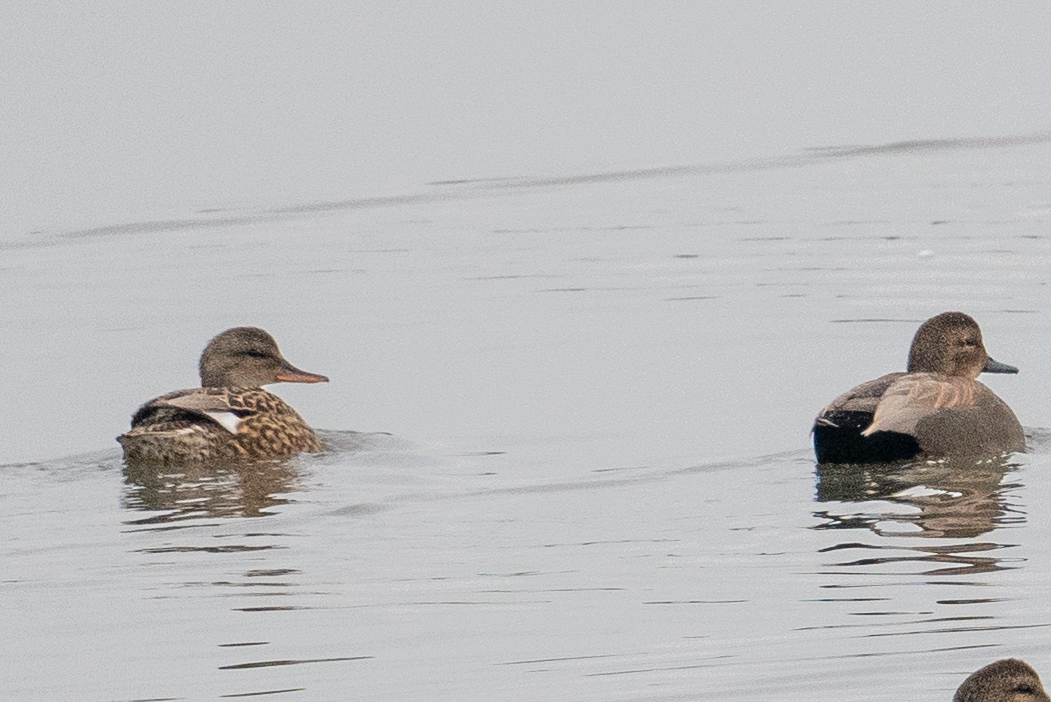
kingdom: Animalia
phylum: Chordata
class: Aves
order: Anseriformes
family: Anatidae
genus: Mareca
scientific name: Mareca strepera
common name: Gadwall
